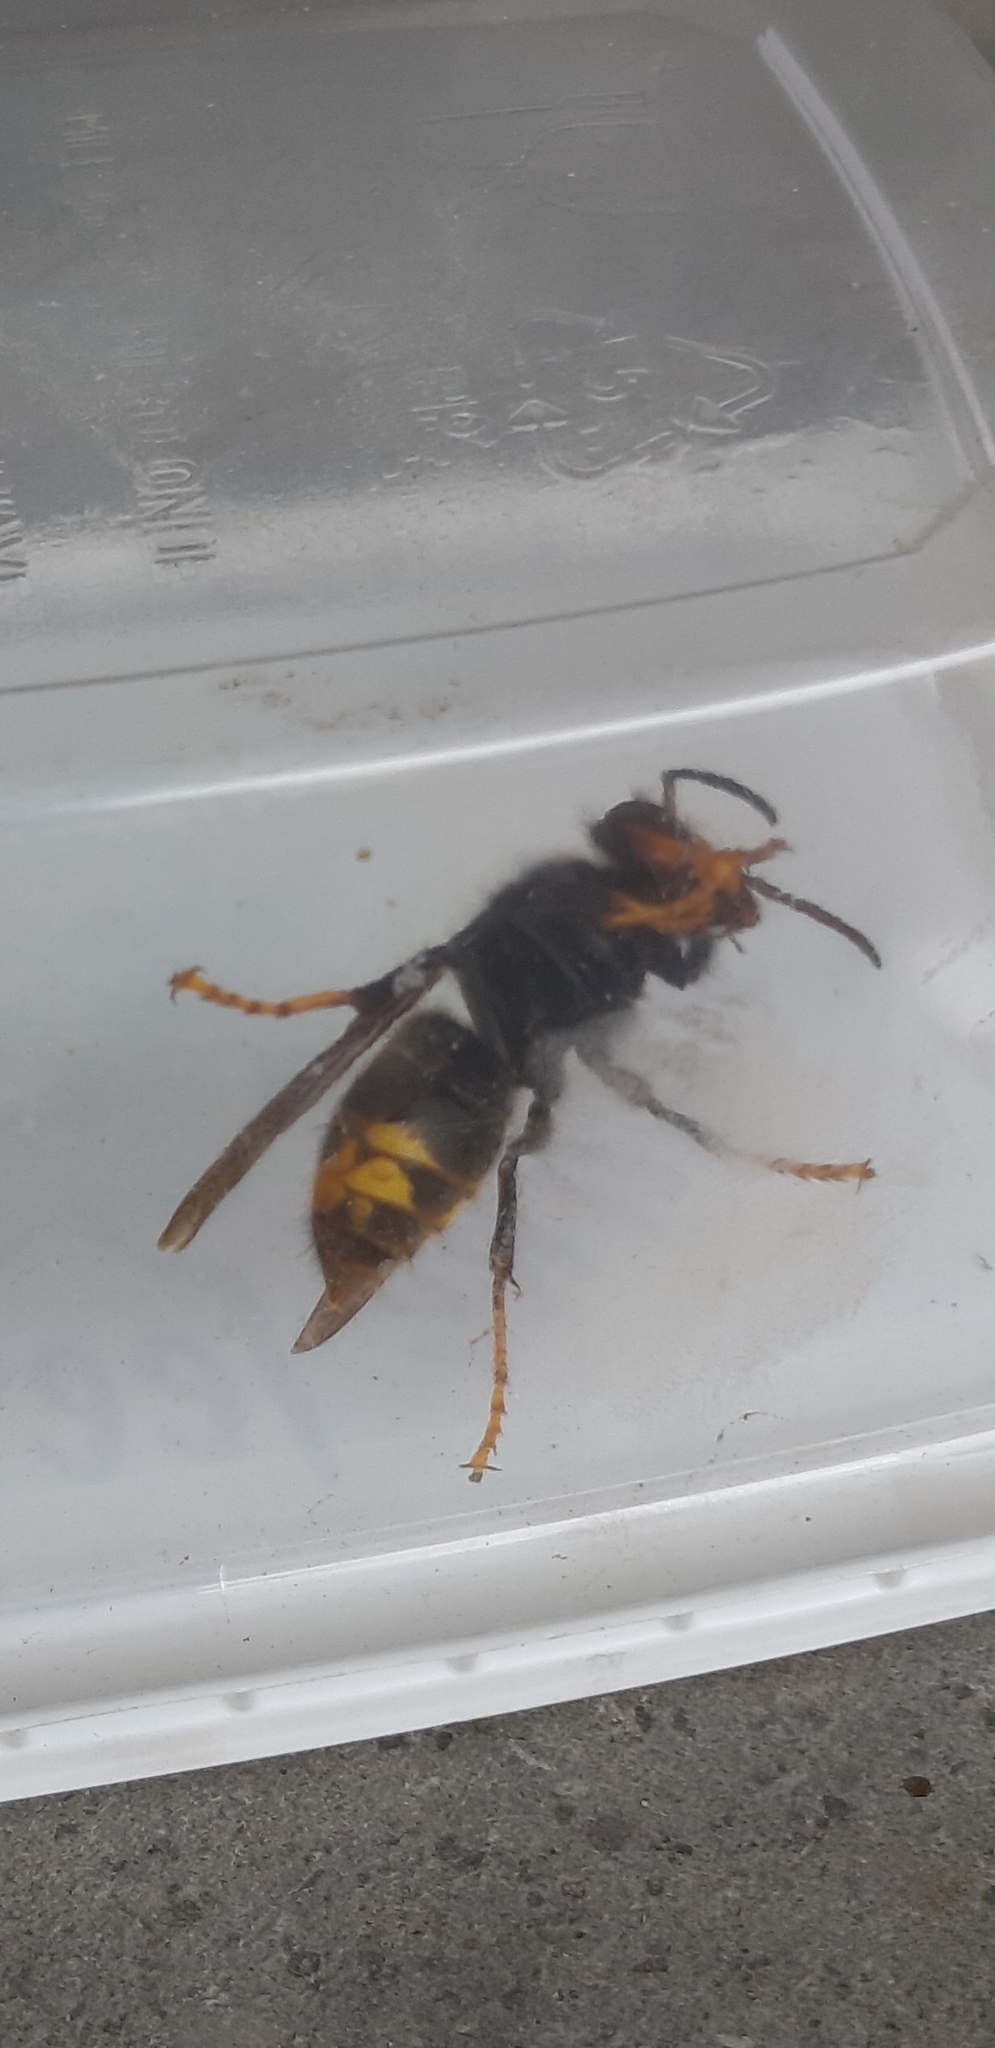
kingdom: Animalia
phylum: Arthropoda
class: Insecta
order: Hymenoptera
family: Vespidae
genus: Vespa
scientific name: Vespa velutina
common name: Asian hornet
